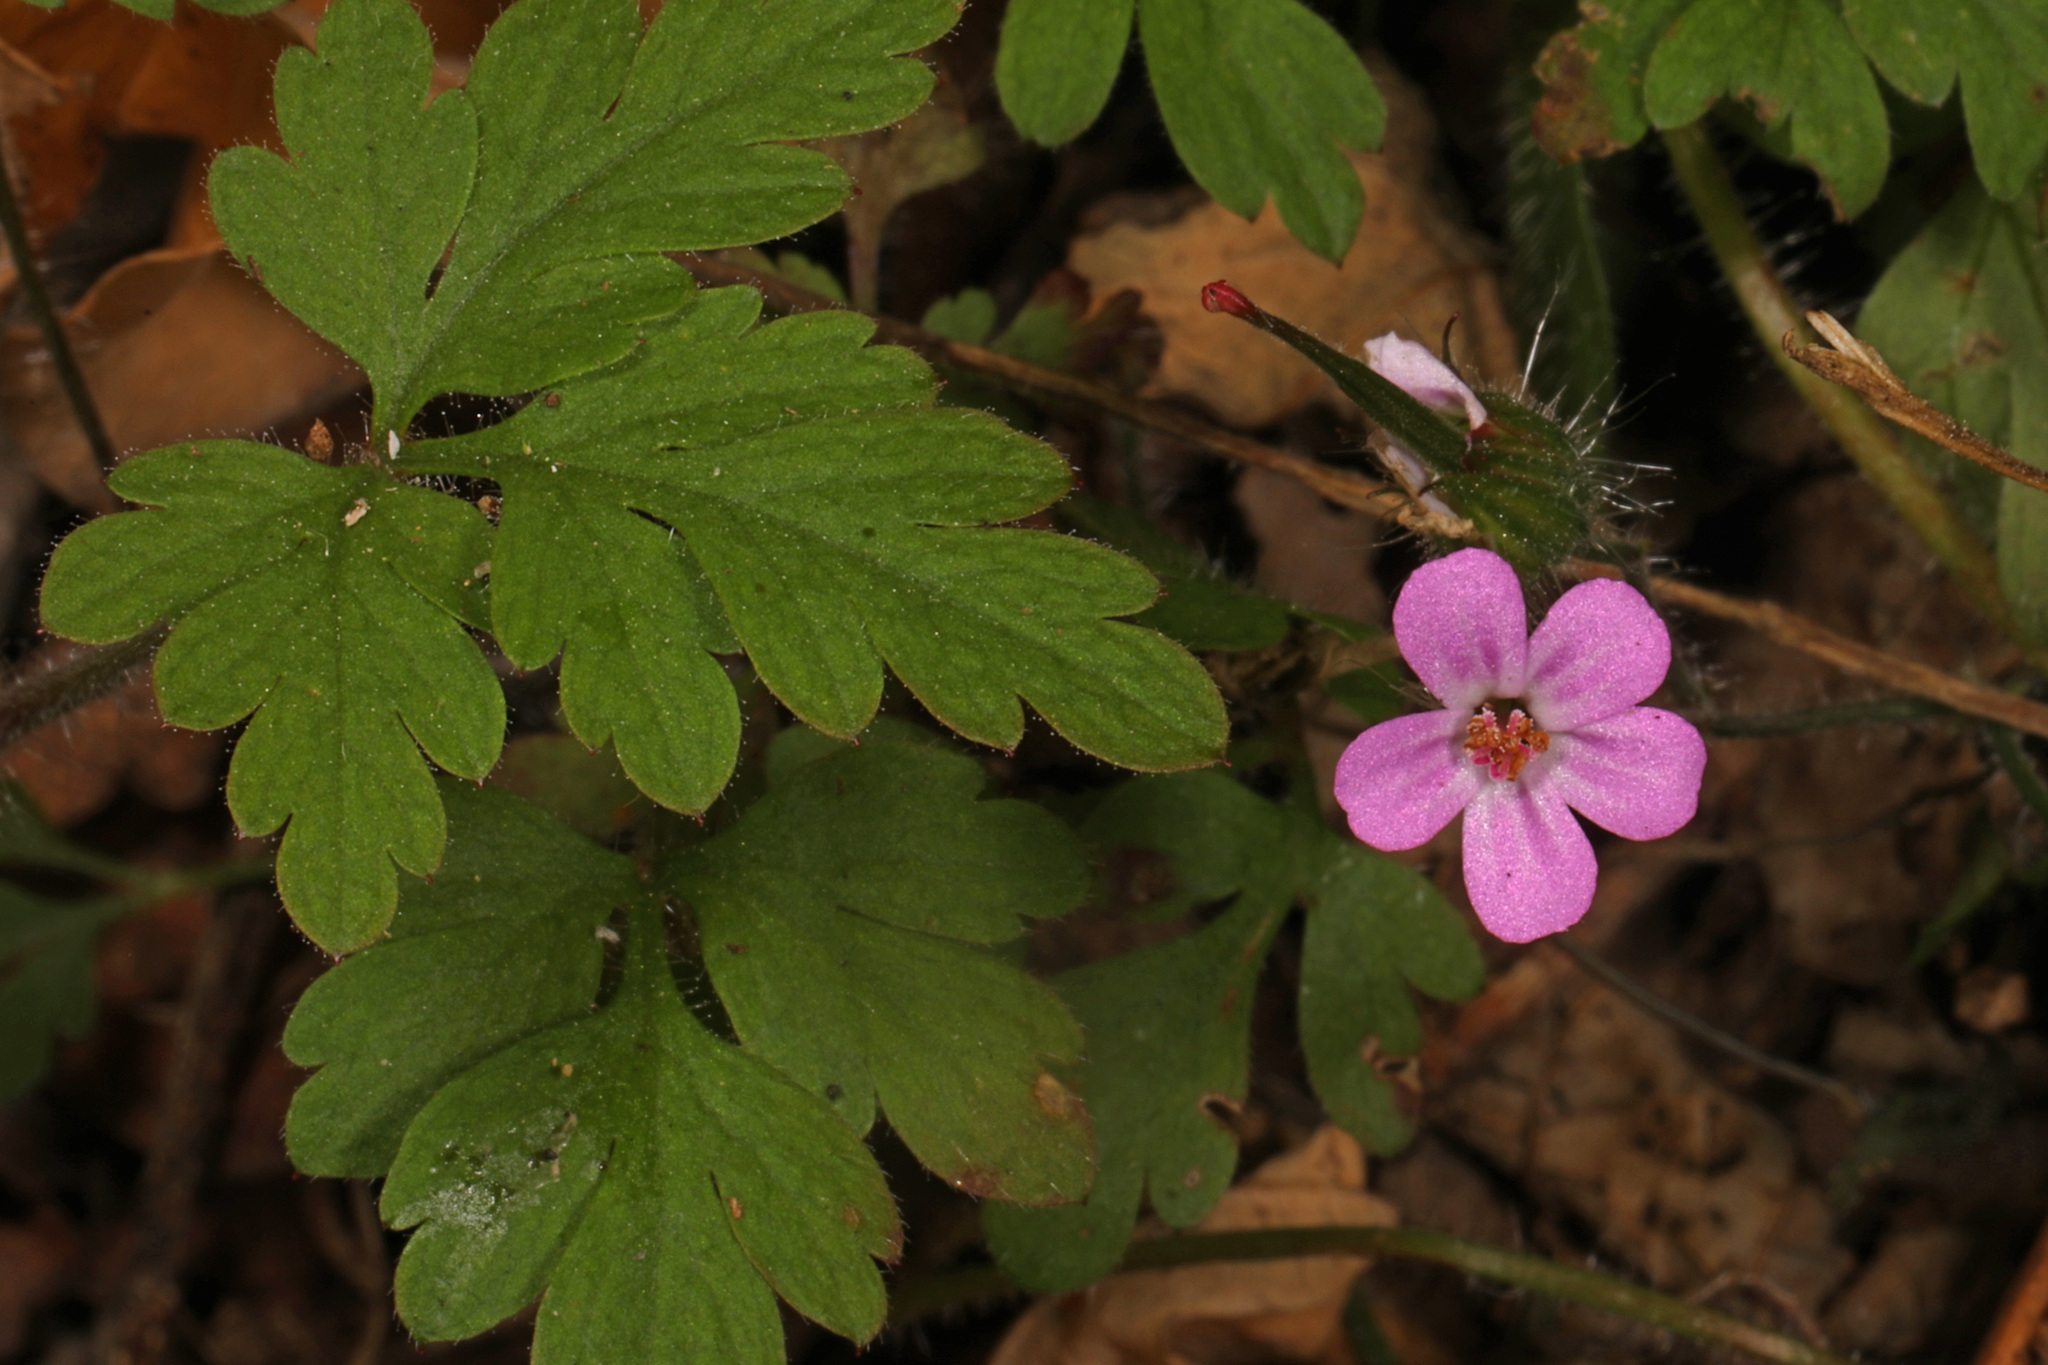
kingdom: Plantae
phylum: Tracheophyta
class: Magnoliopsida
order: Geraniales
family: Geraniaceae
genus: Geranium
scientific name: Geranium robertianum
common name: Herb-robert
